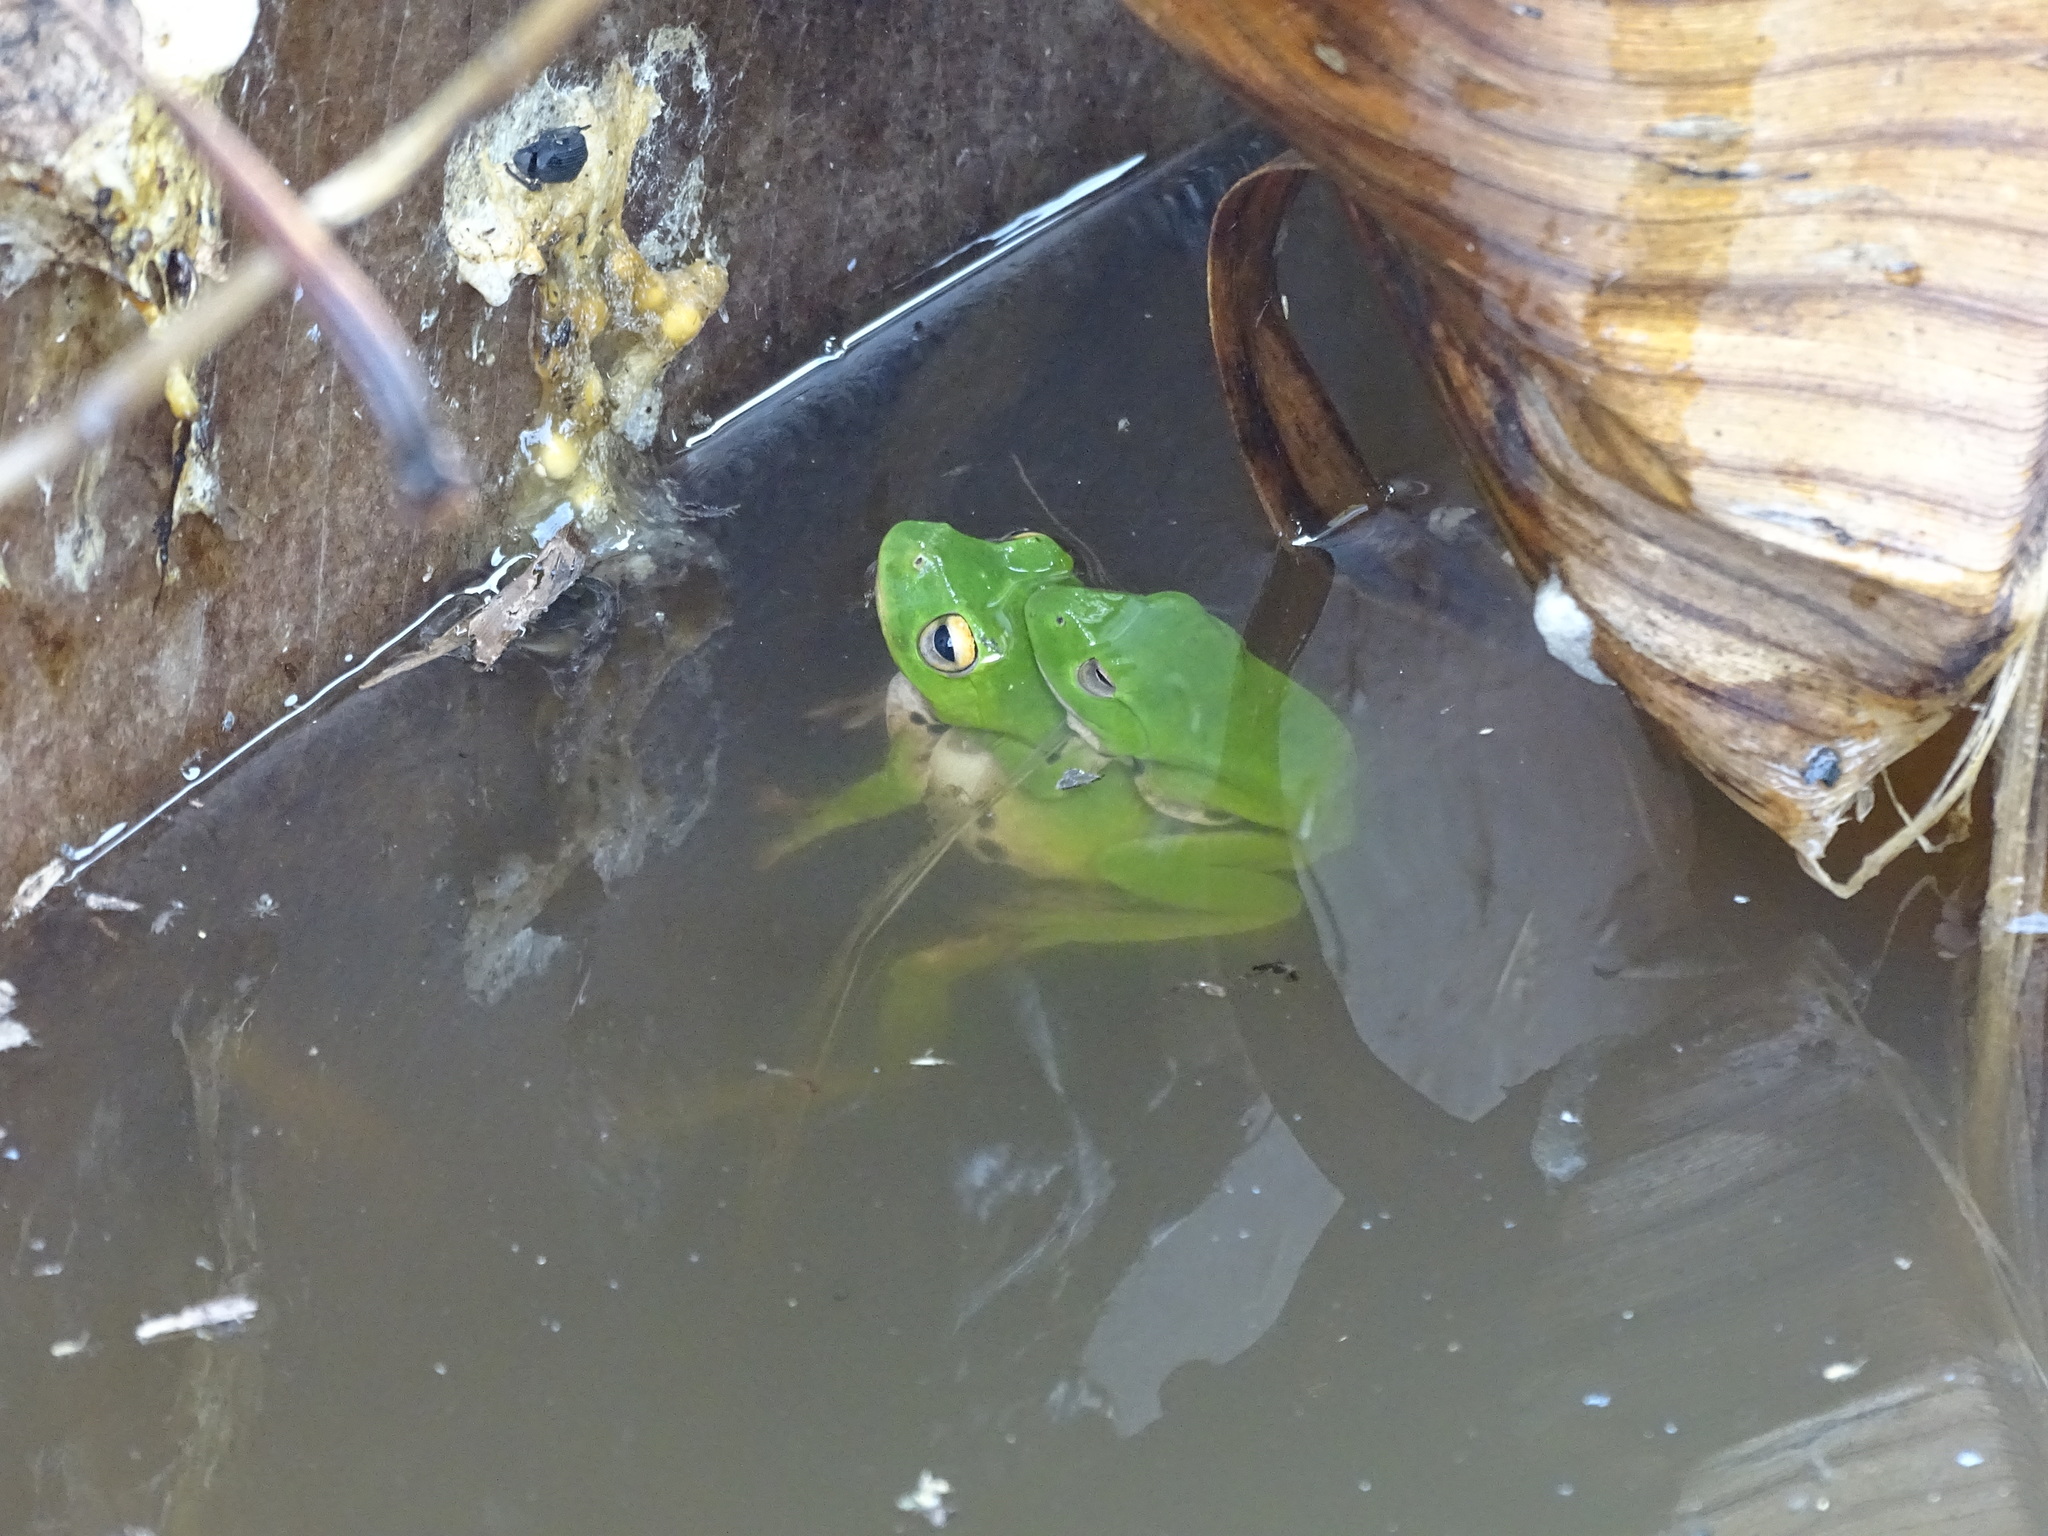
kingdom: Animalia
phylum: Chordata
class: Amphibia
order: Anura
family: Rhacophoridae
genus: Zhangixalus
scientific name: Zhangixalus moltrechti
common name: Moltrecht's treefrog
